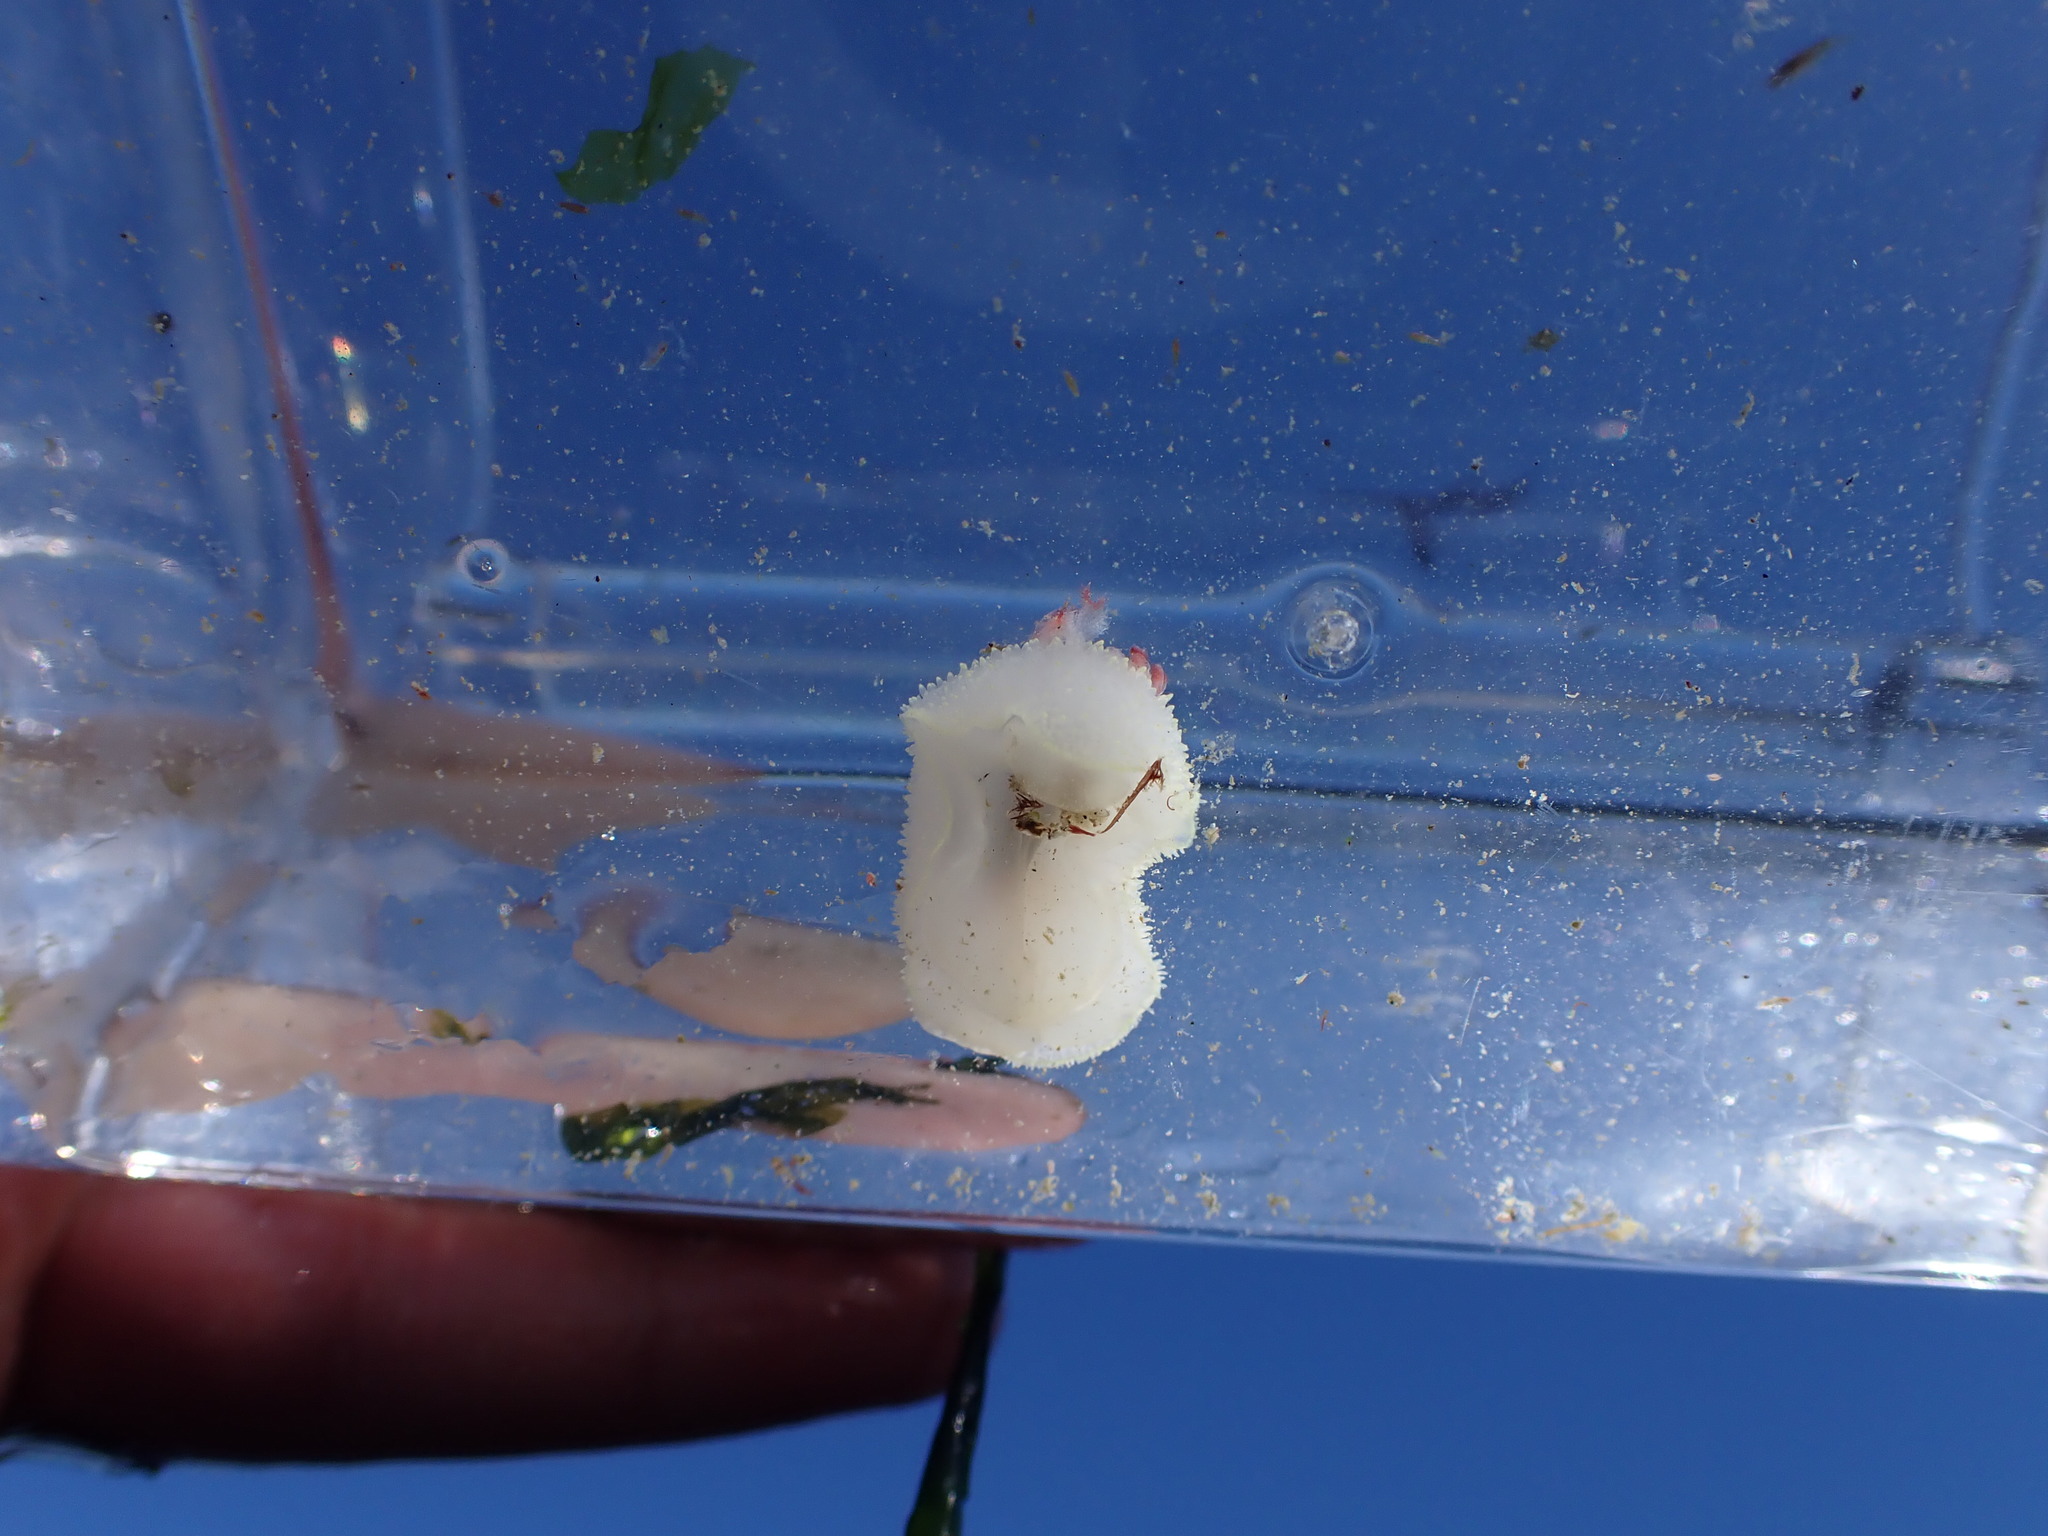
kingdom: Animalia
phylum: Mollusca
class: Gastropoda
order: Nudibranchia
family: Onchidorididae
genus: Acanthodoris
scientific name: Acanthodoris nanaimoensis
